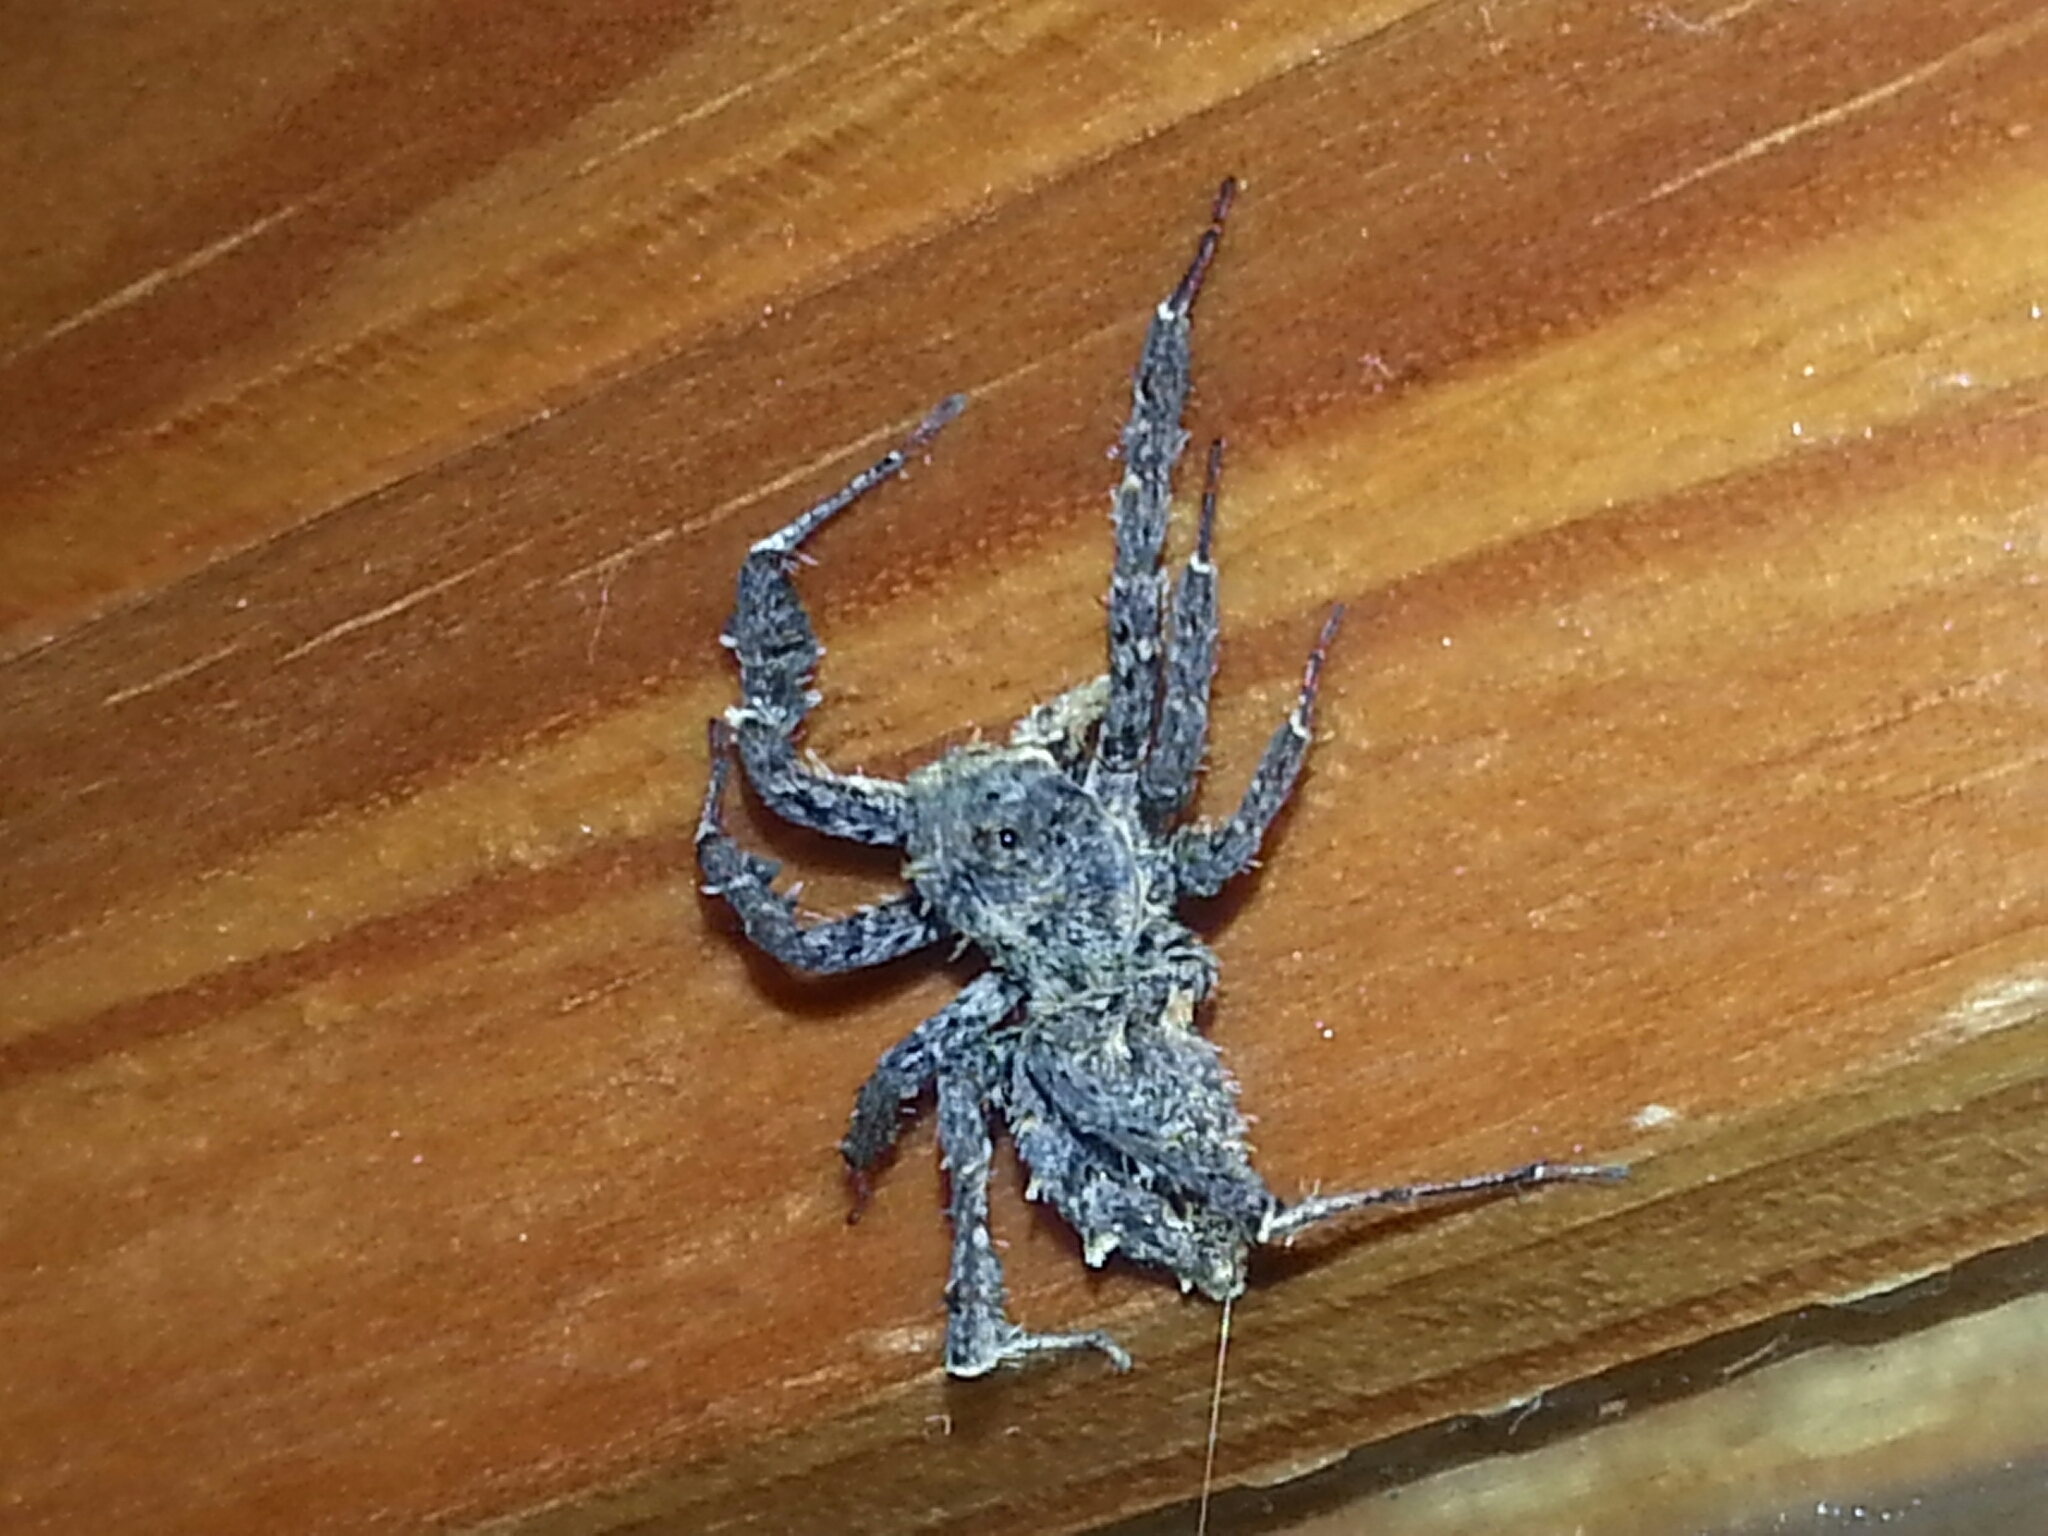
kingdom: Animalia
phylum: Arthropoda
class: Arachnida
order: Araneae
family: Salticidae
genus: Portia
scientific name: Portia labiata
